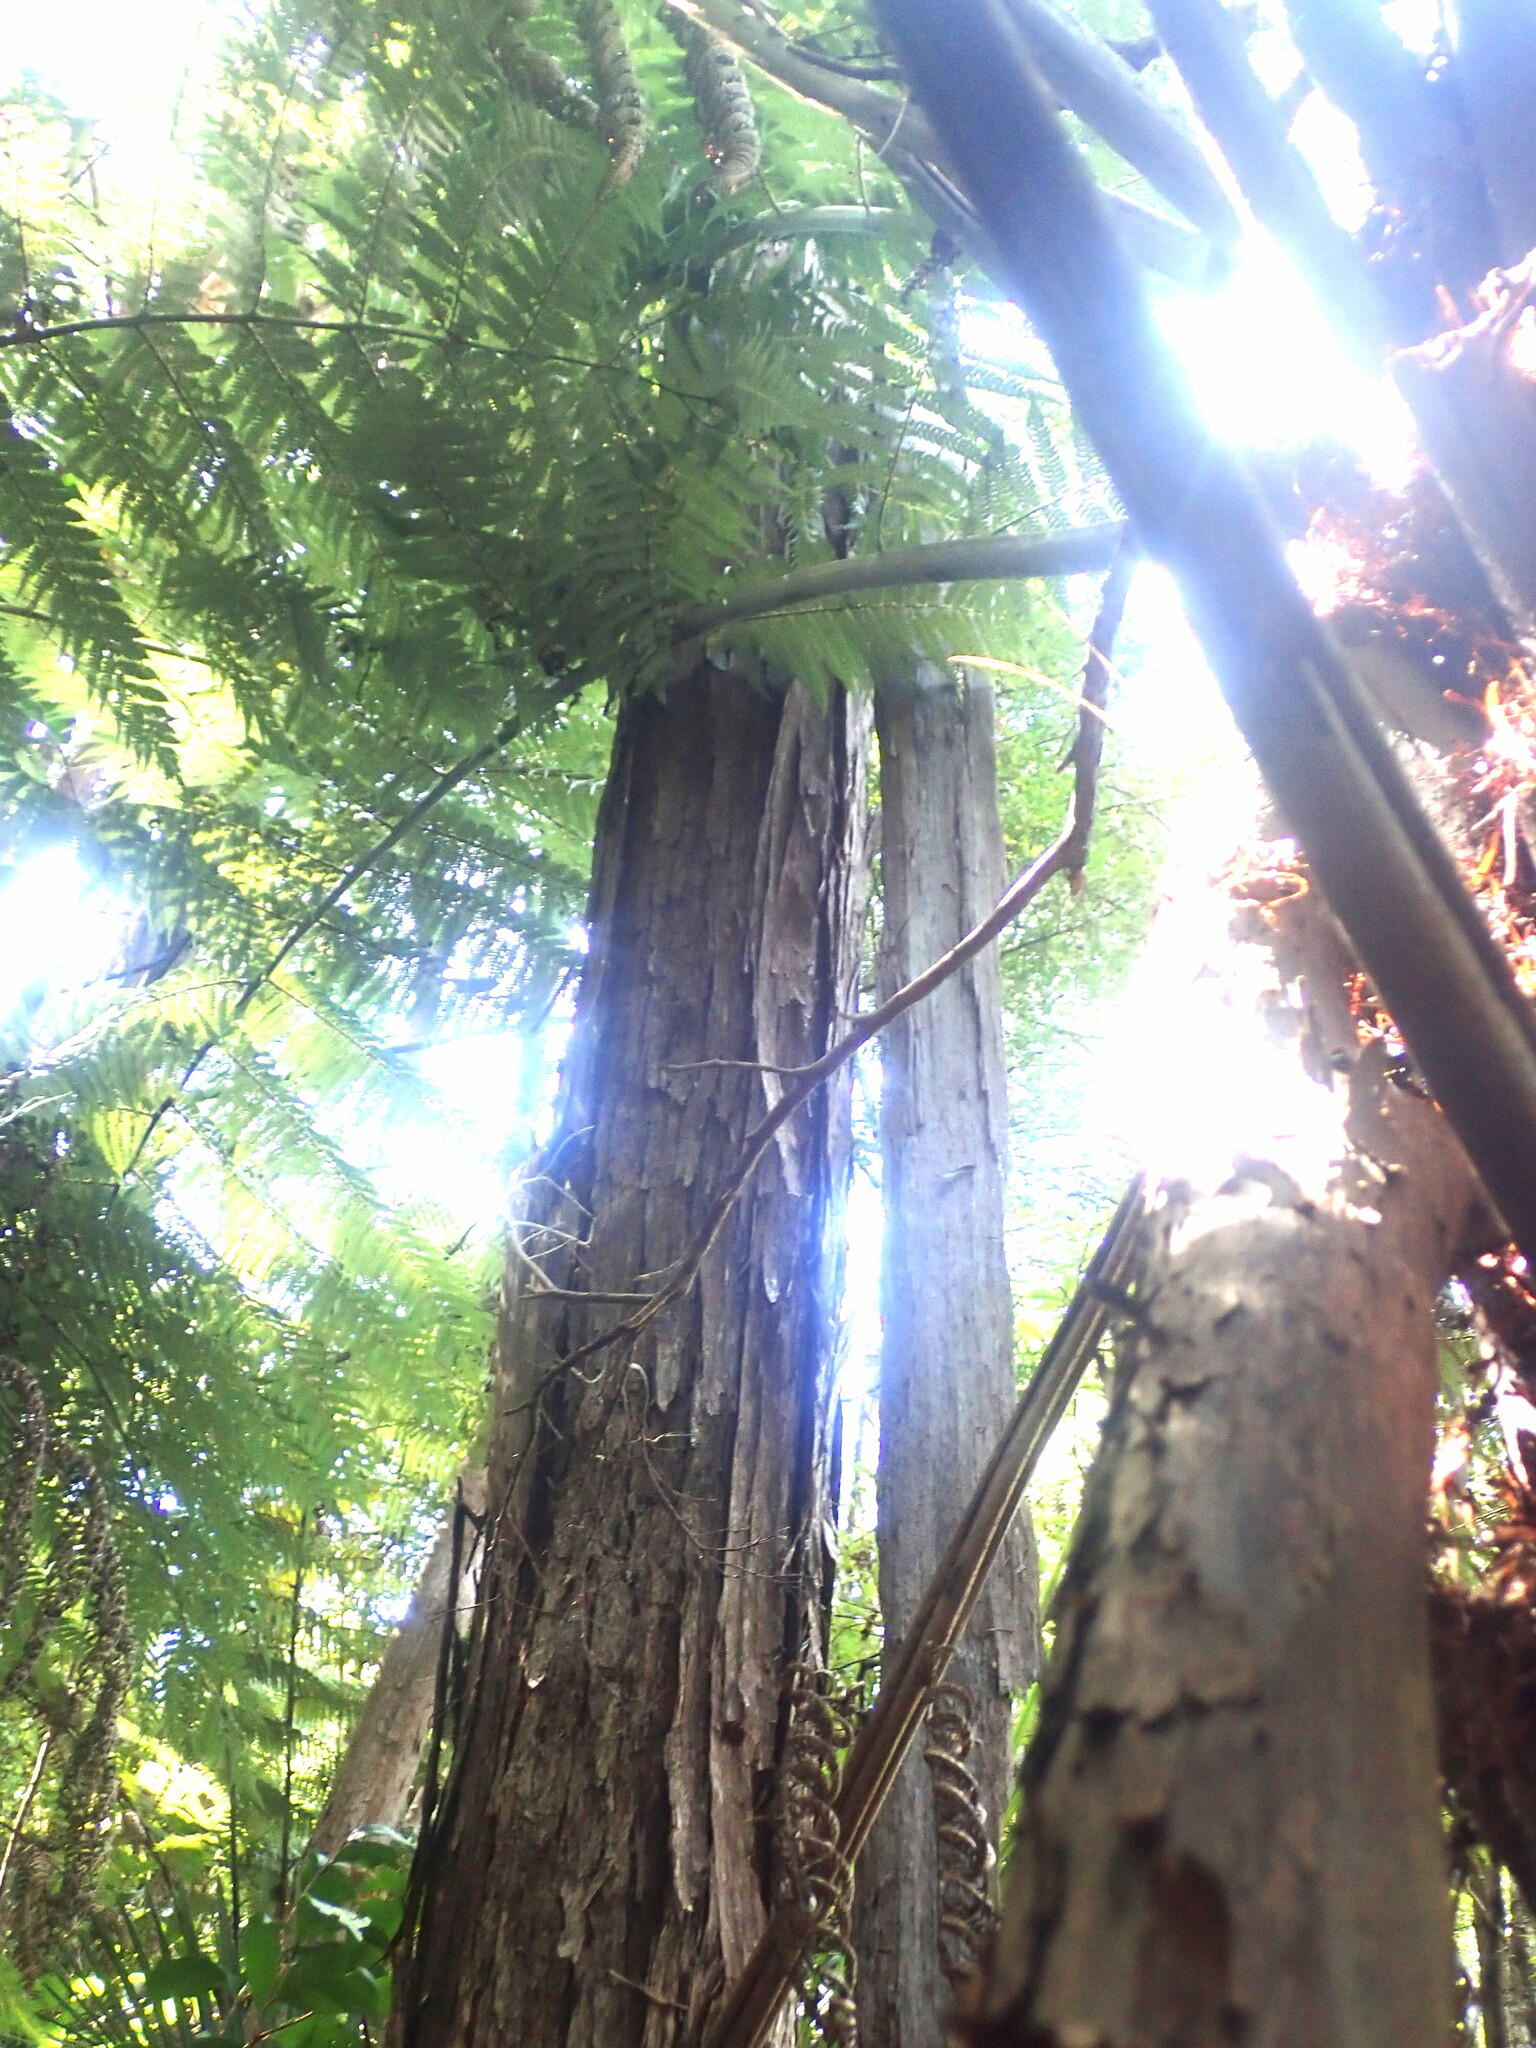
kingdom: Plantae
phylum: Tracheophyta
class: Magnoliopsida
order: Myrtales
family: Myrtaceae
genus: Kunzea
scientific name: Kunzea robusta
